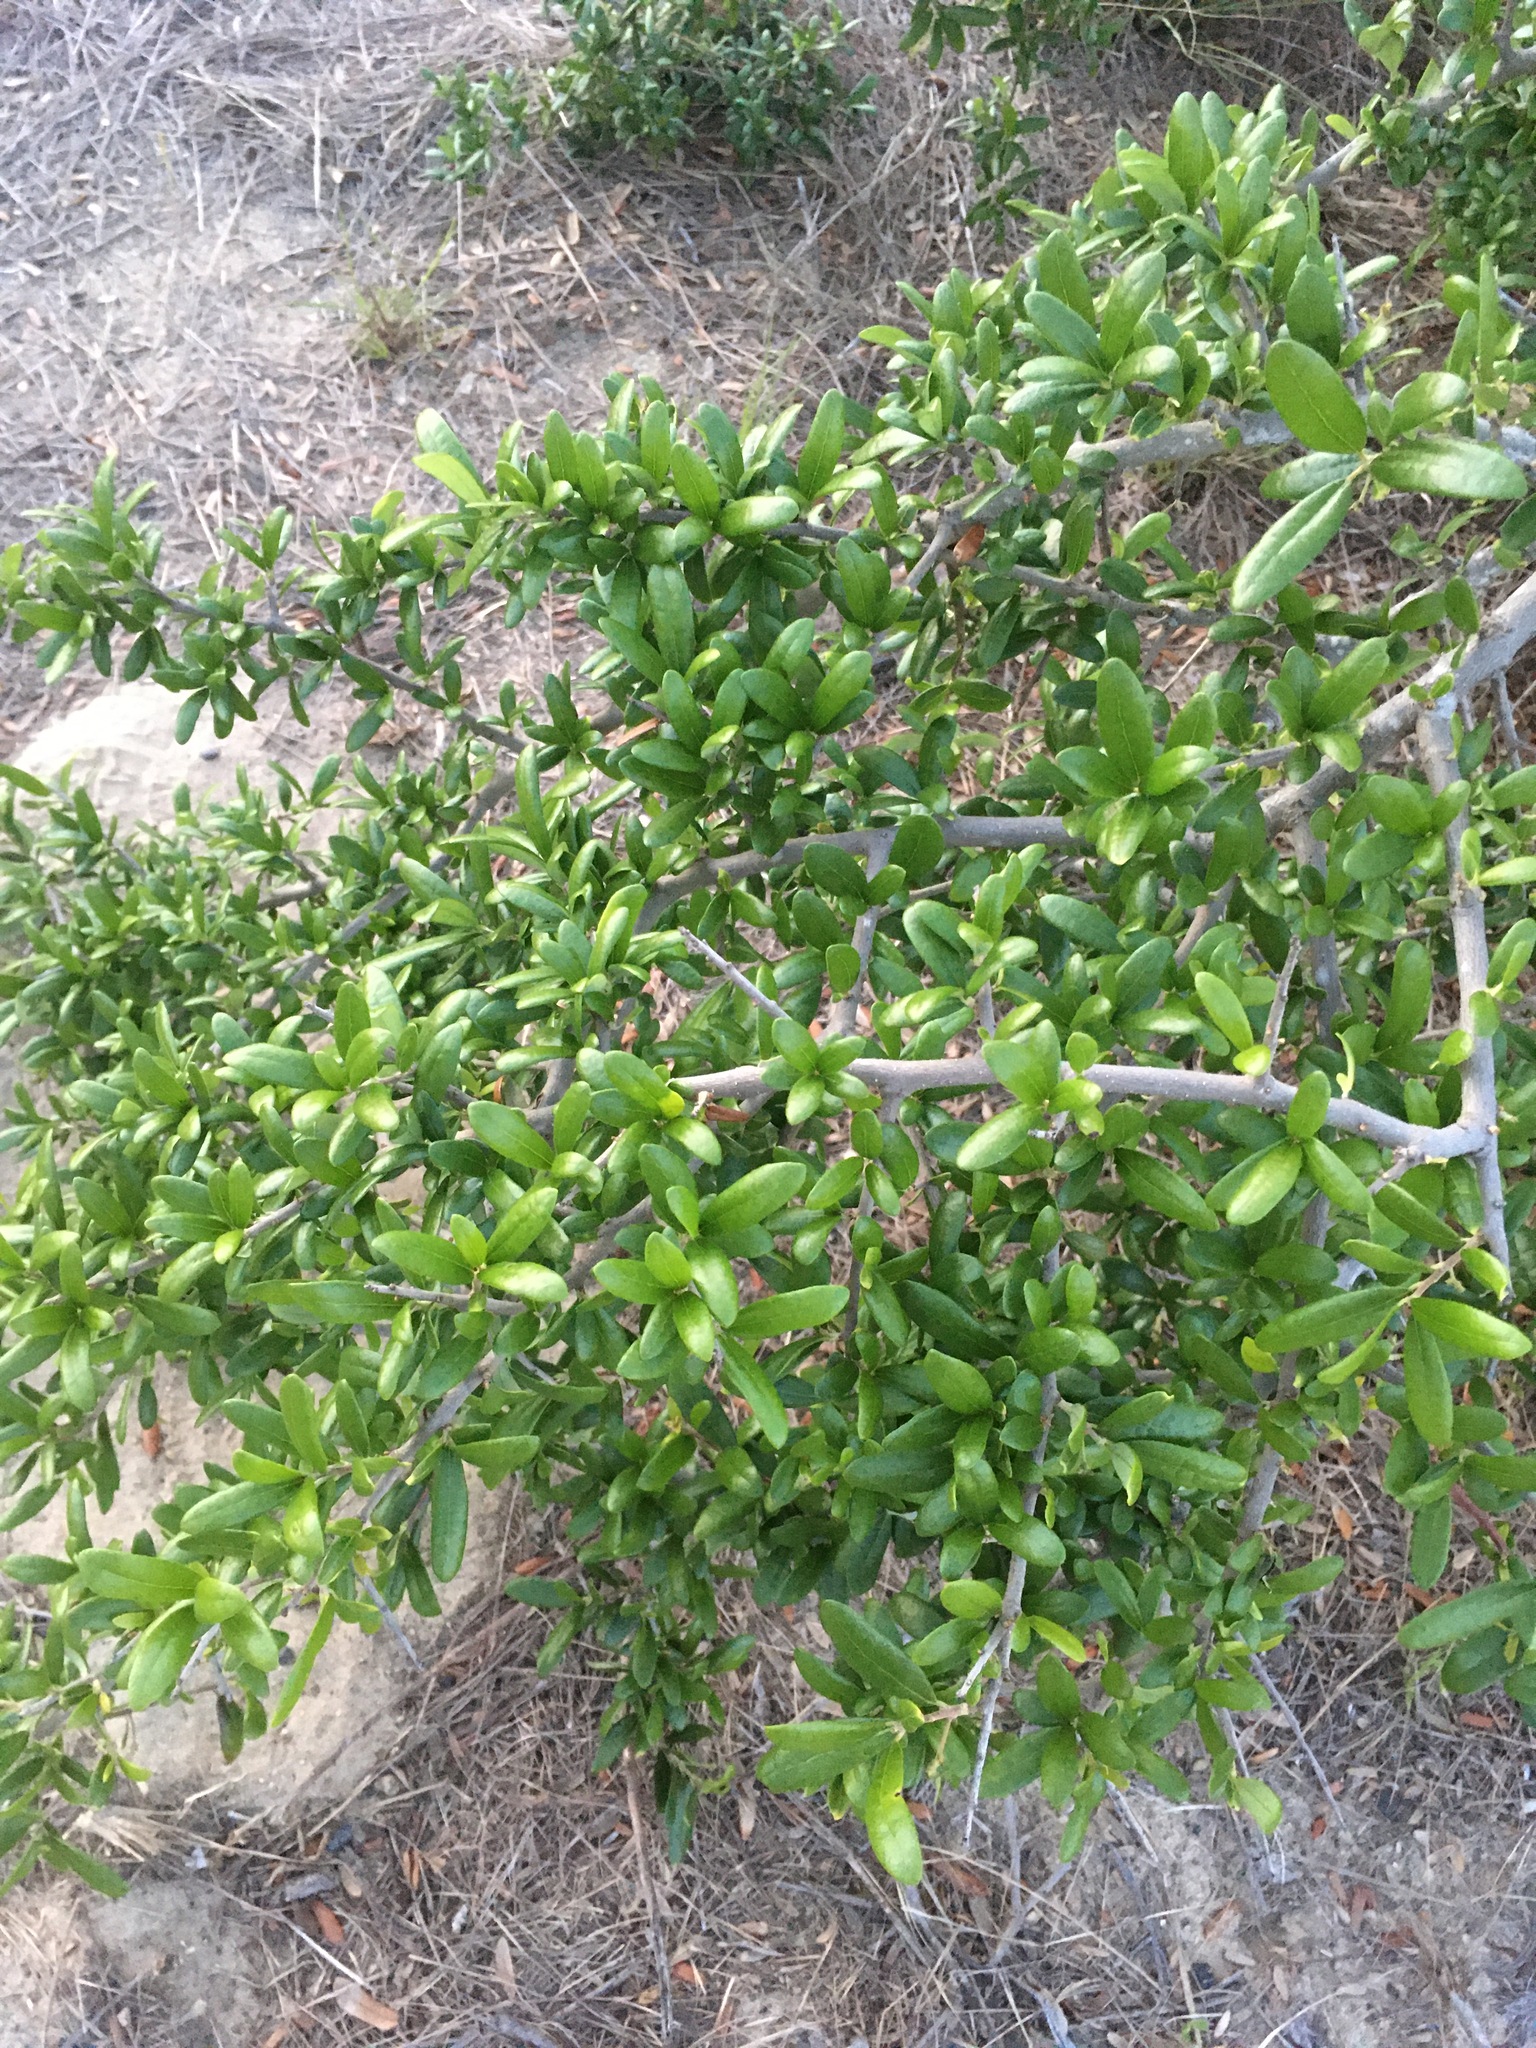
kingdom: Plantae
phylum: Tracheophyta
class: Magnoliopsida
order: Fagales
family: Fagaceae
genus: Quercus
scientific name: Quercus virginiana
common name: Southern live oak
